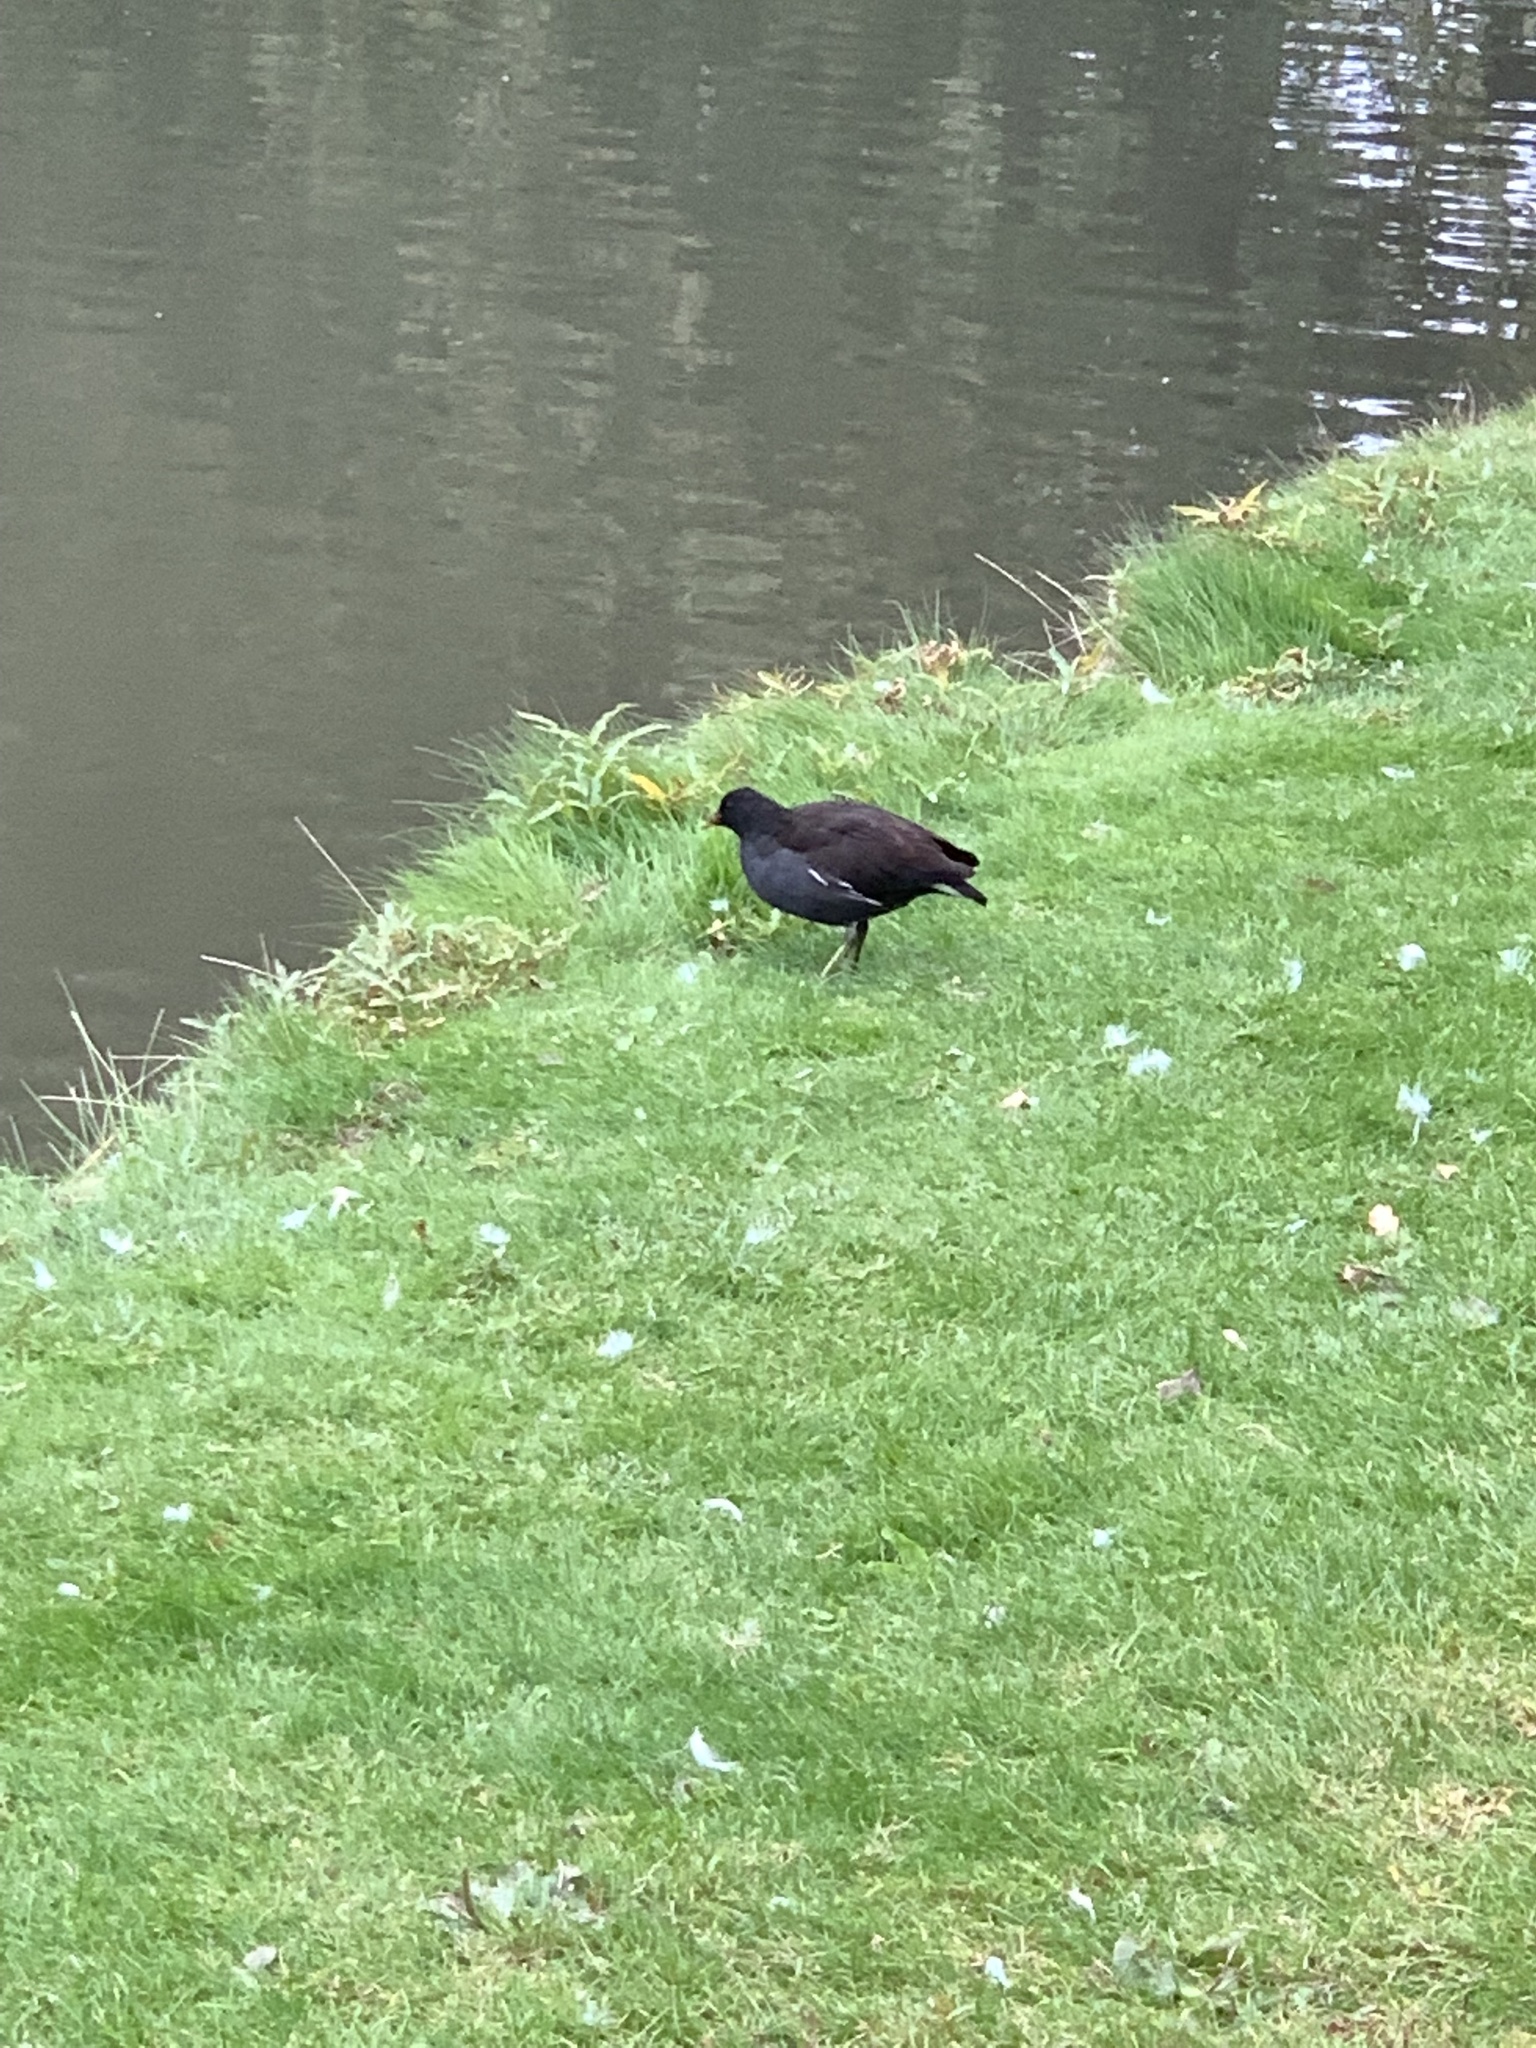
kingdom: Animalia
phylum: Chordata
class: Aves
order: Gruiformes
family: Rallidae
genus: Gallinula
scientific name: Gallinula chloropus
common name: Common moorhen
